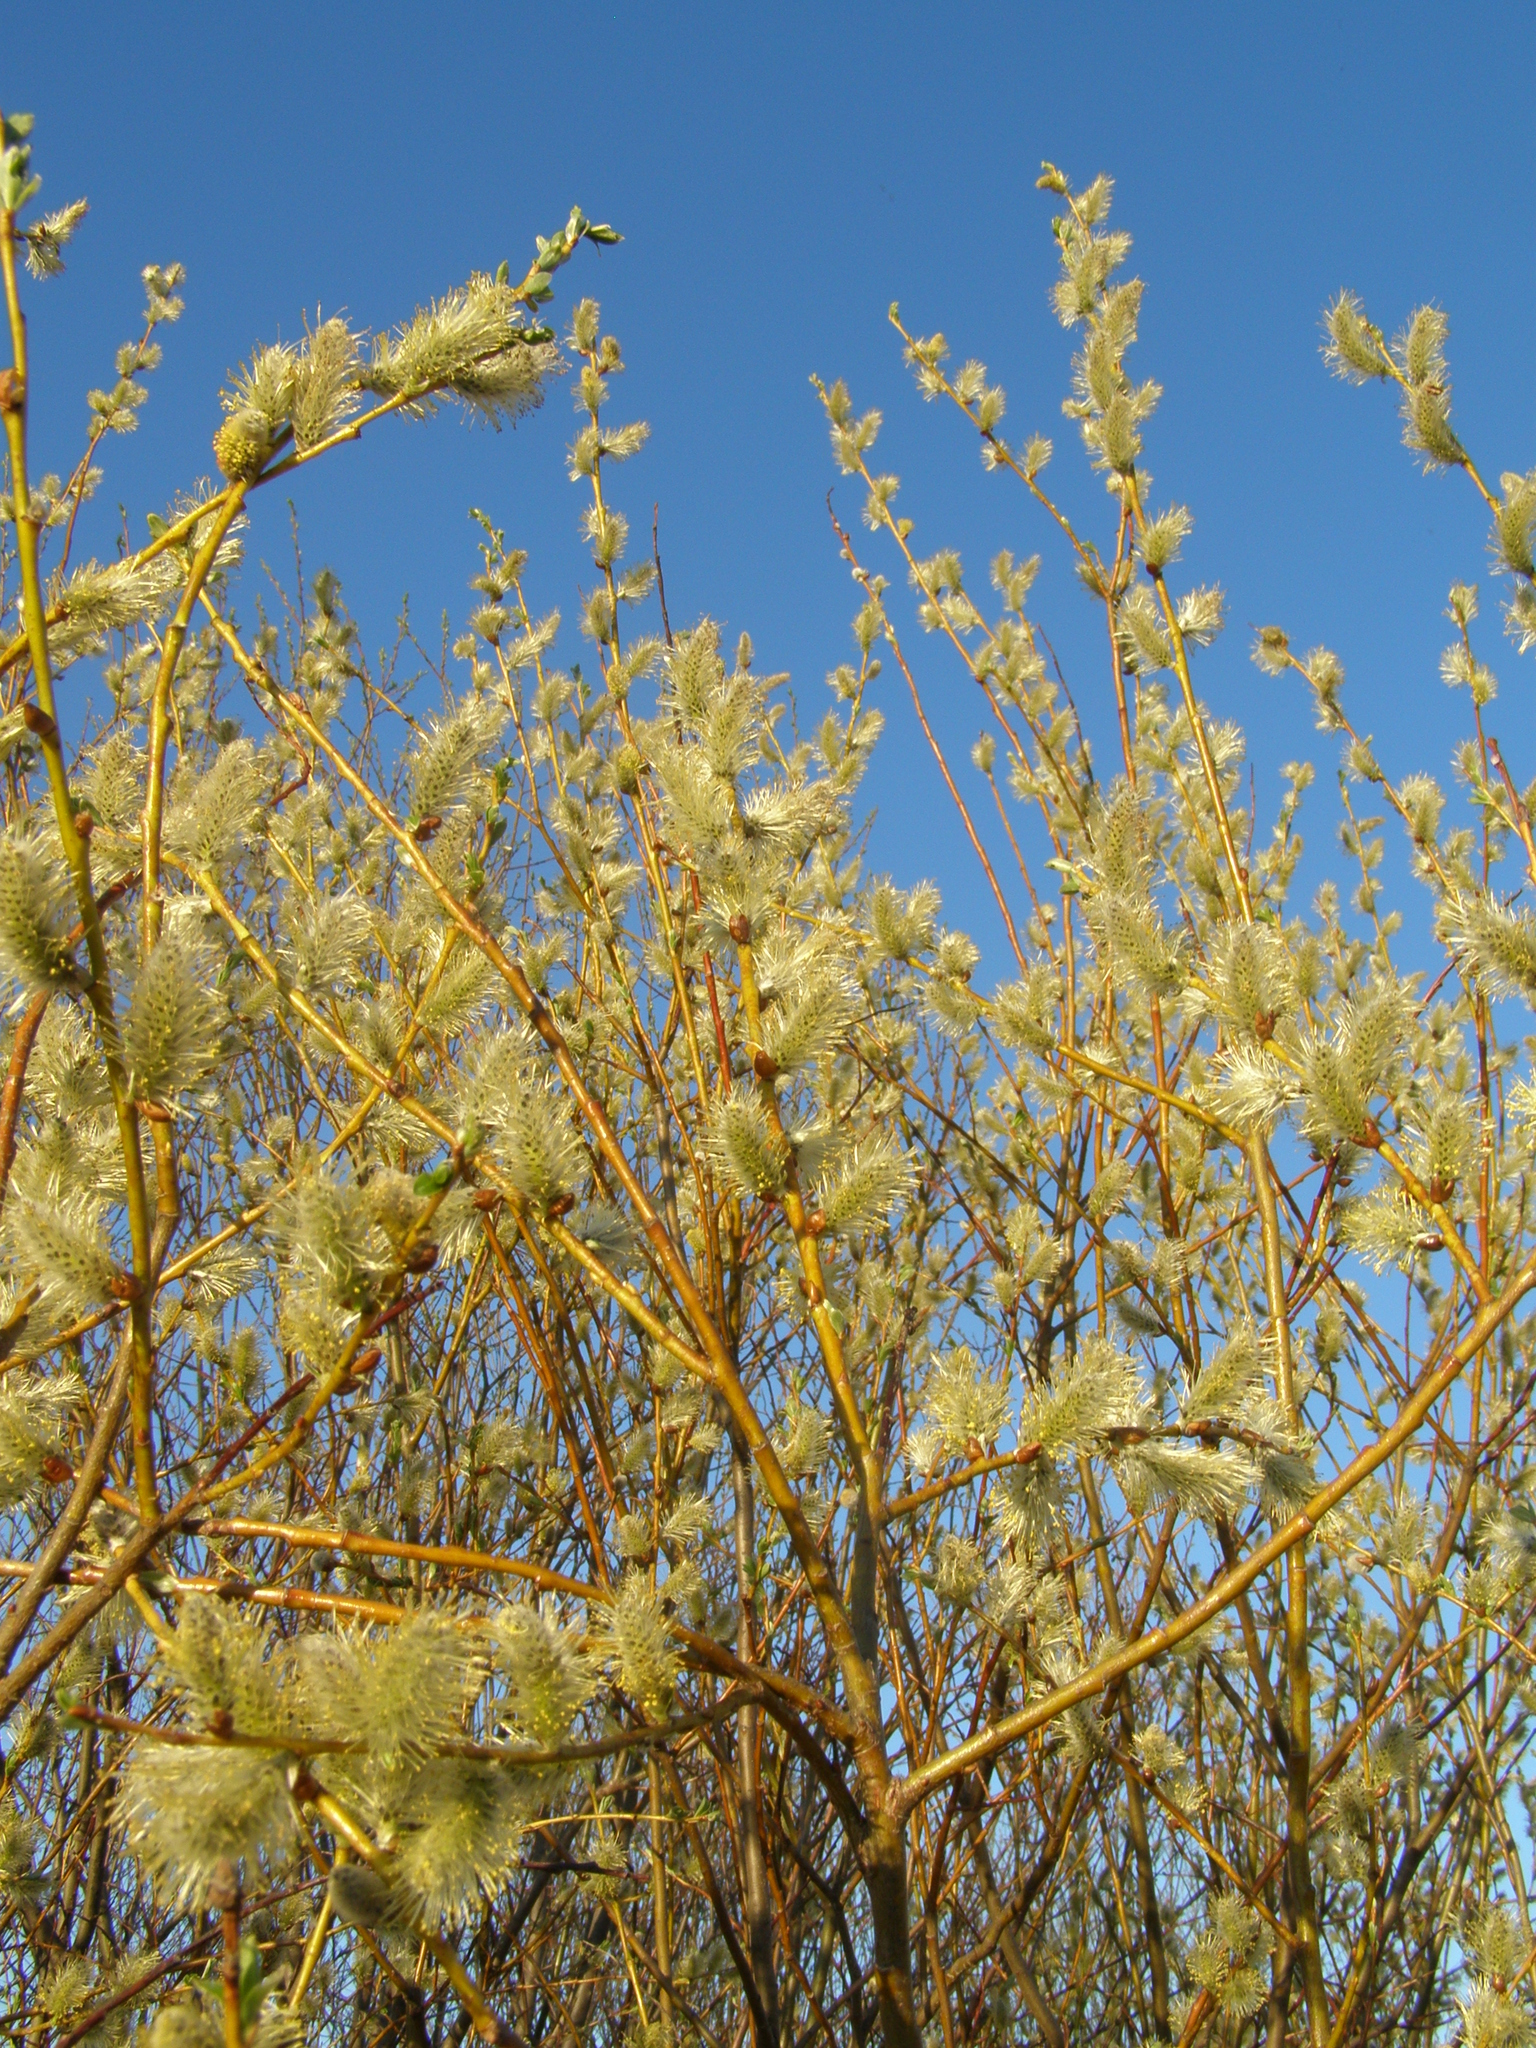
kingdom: Plantae
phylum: Tracheophyta
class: Magnoliopsida
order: Malpighiales
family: Salicaceae
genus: Salix
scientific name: Salix caprea
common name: Goat willow
